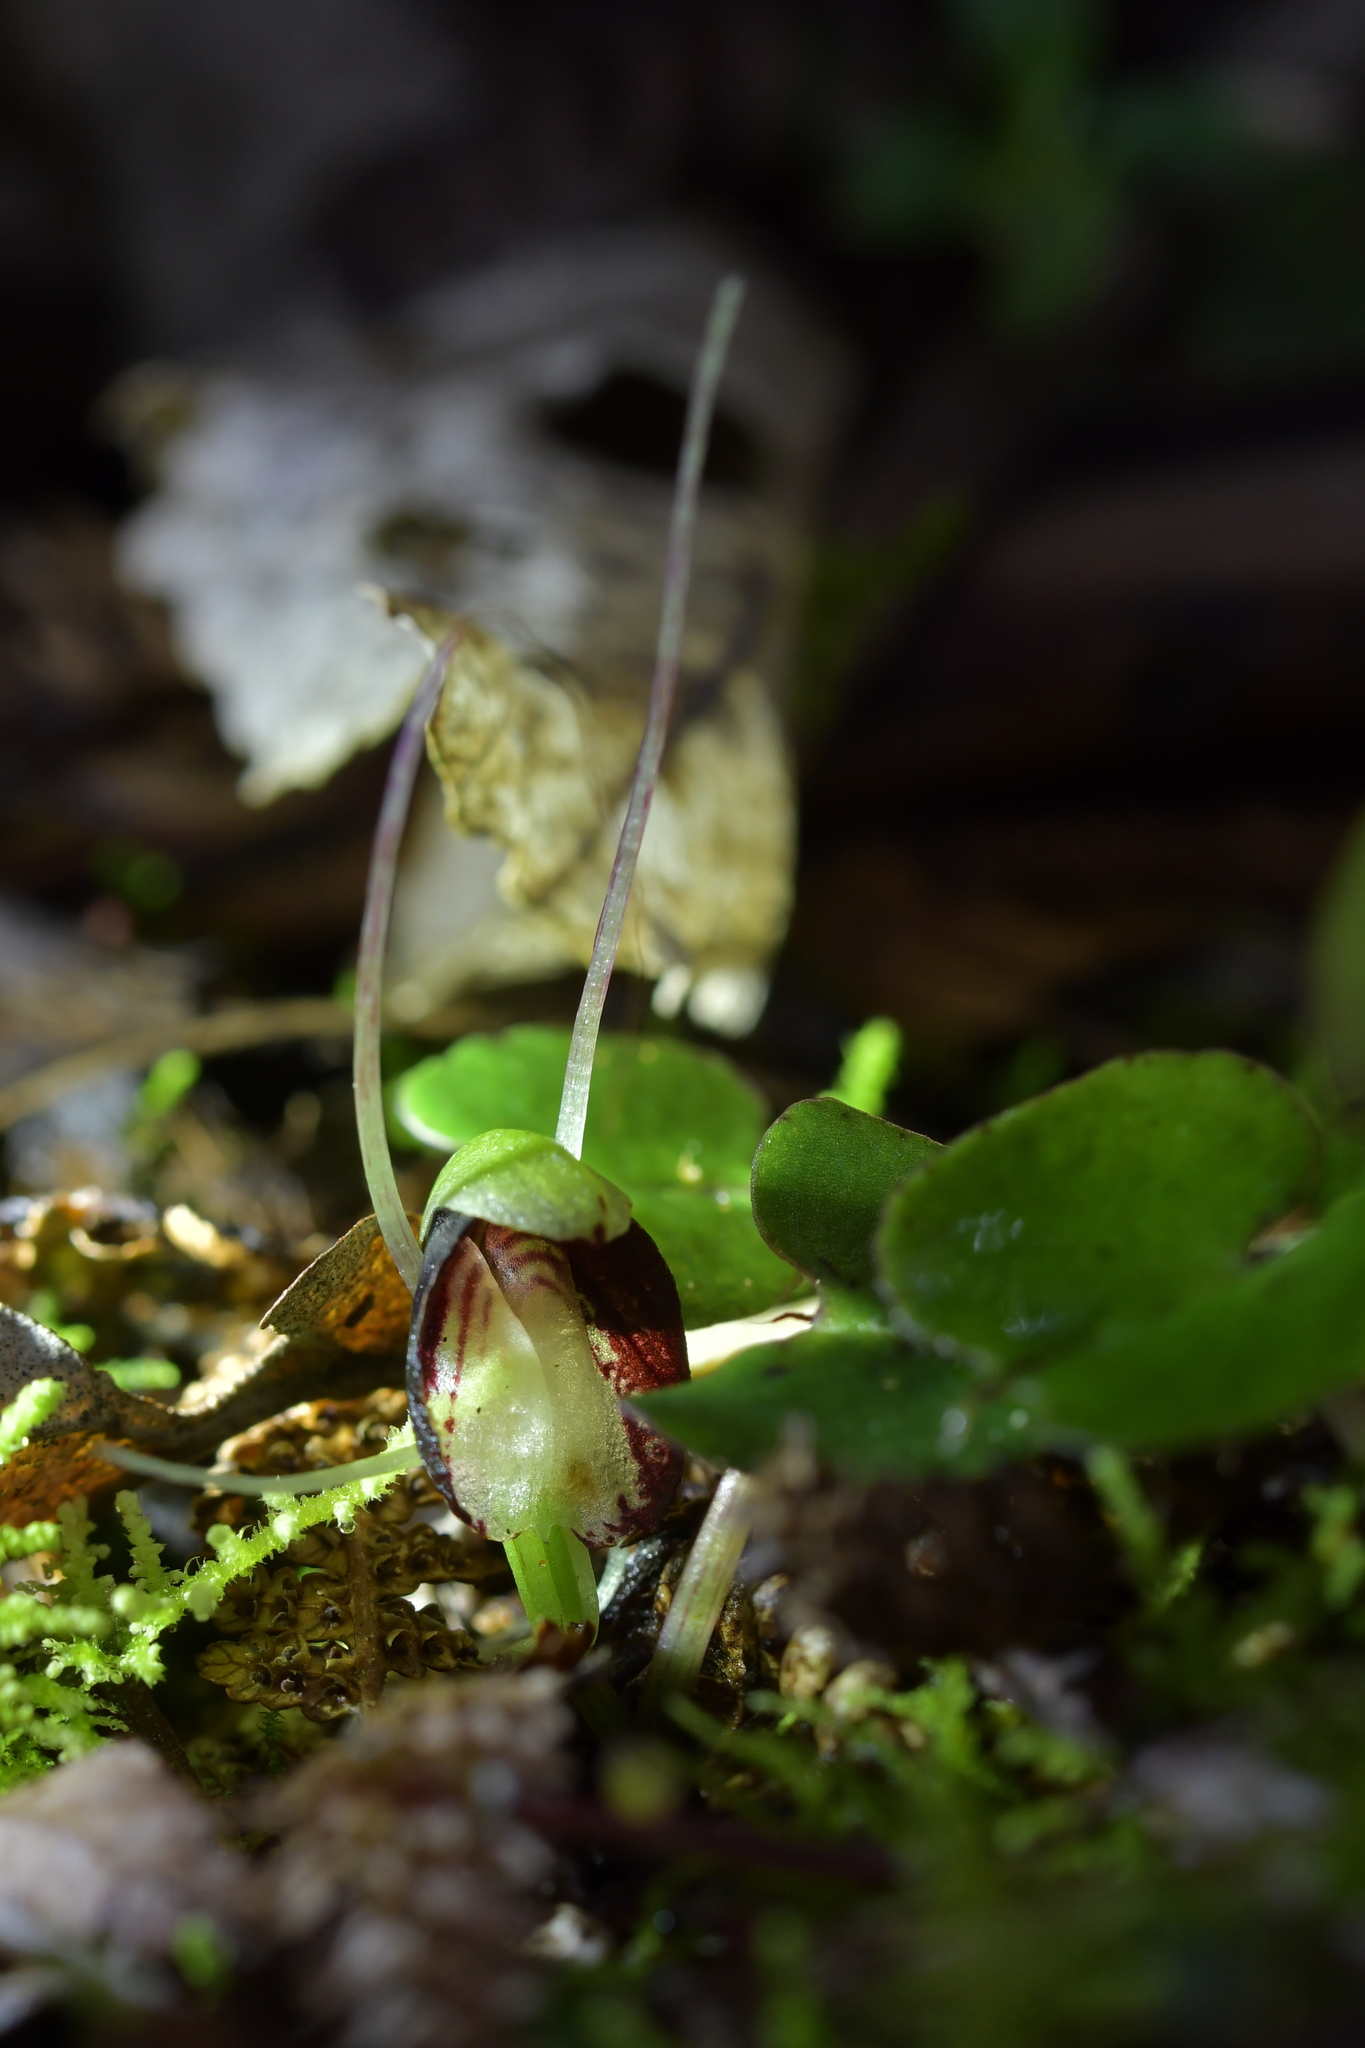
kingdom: Plantae
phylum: Tracheophyta
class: Liliopsida
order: Asparagales
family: Orchidaceae
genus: Corybas
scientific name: Corybas sanctigeorgianus
